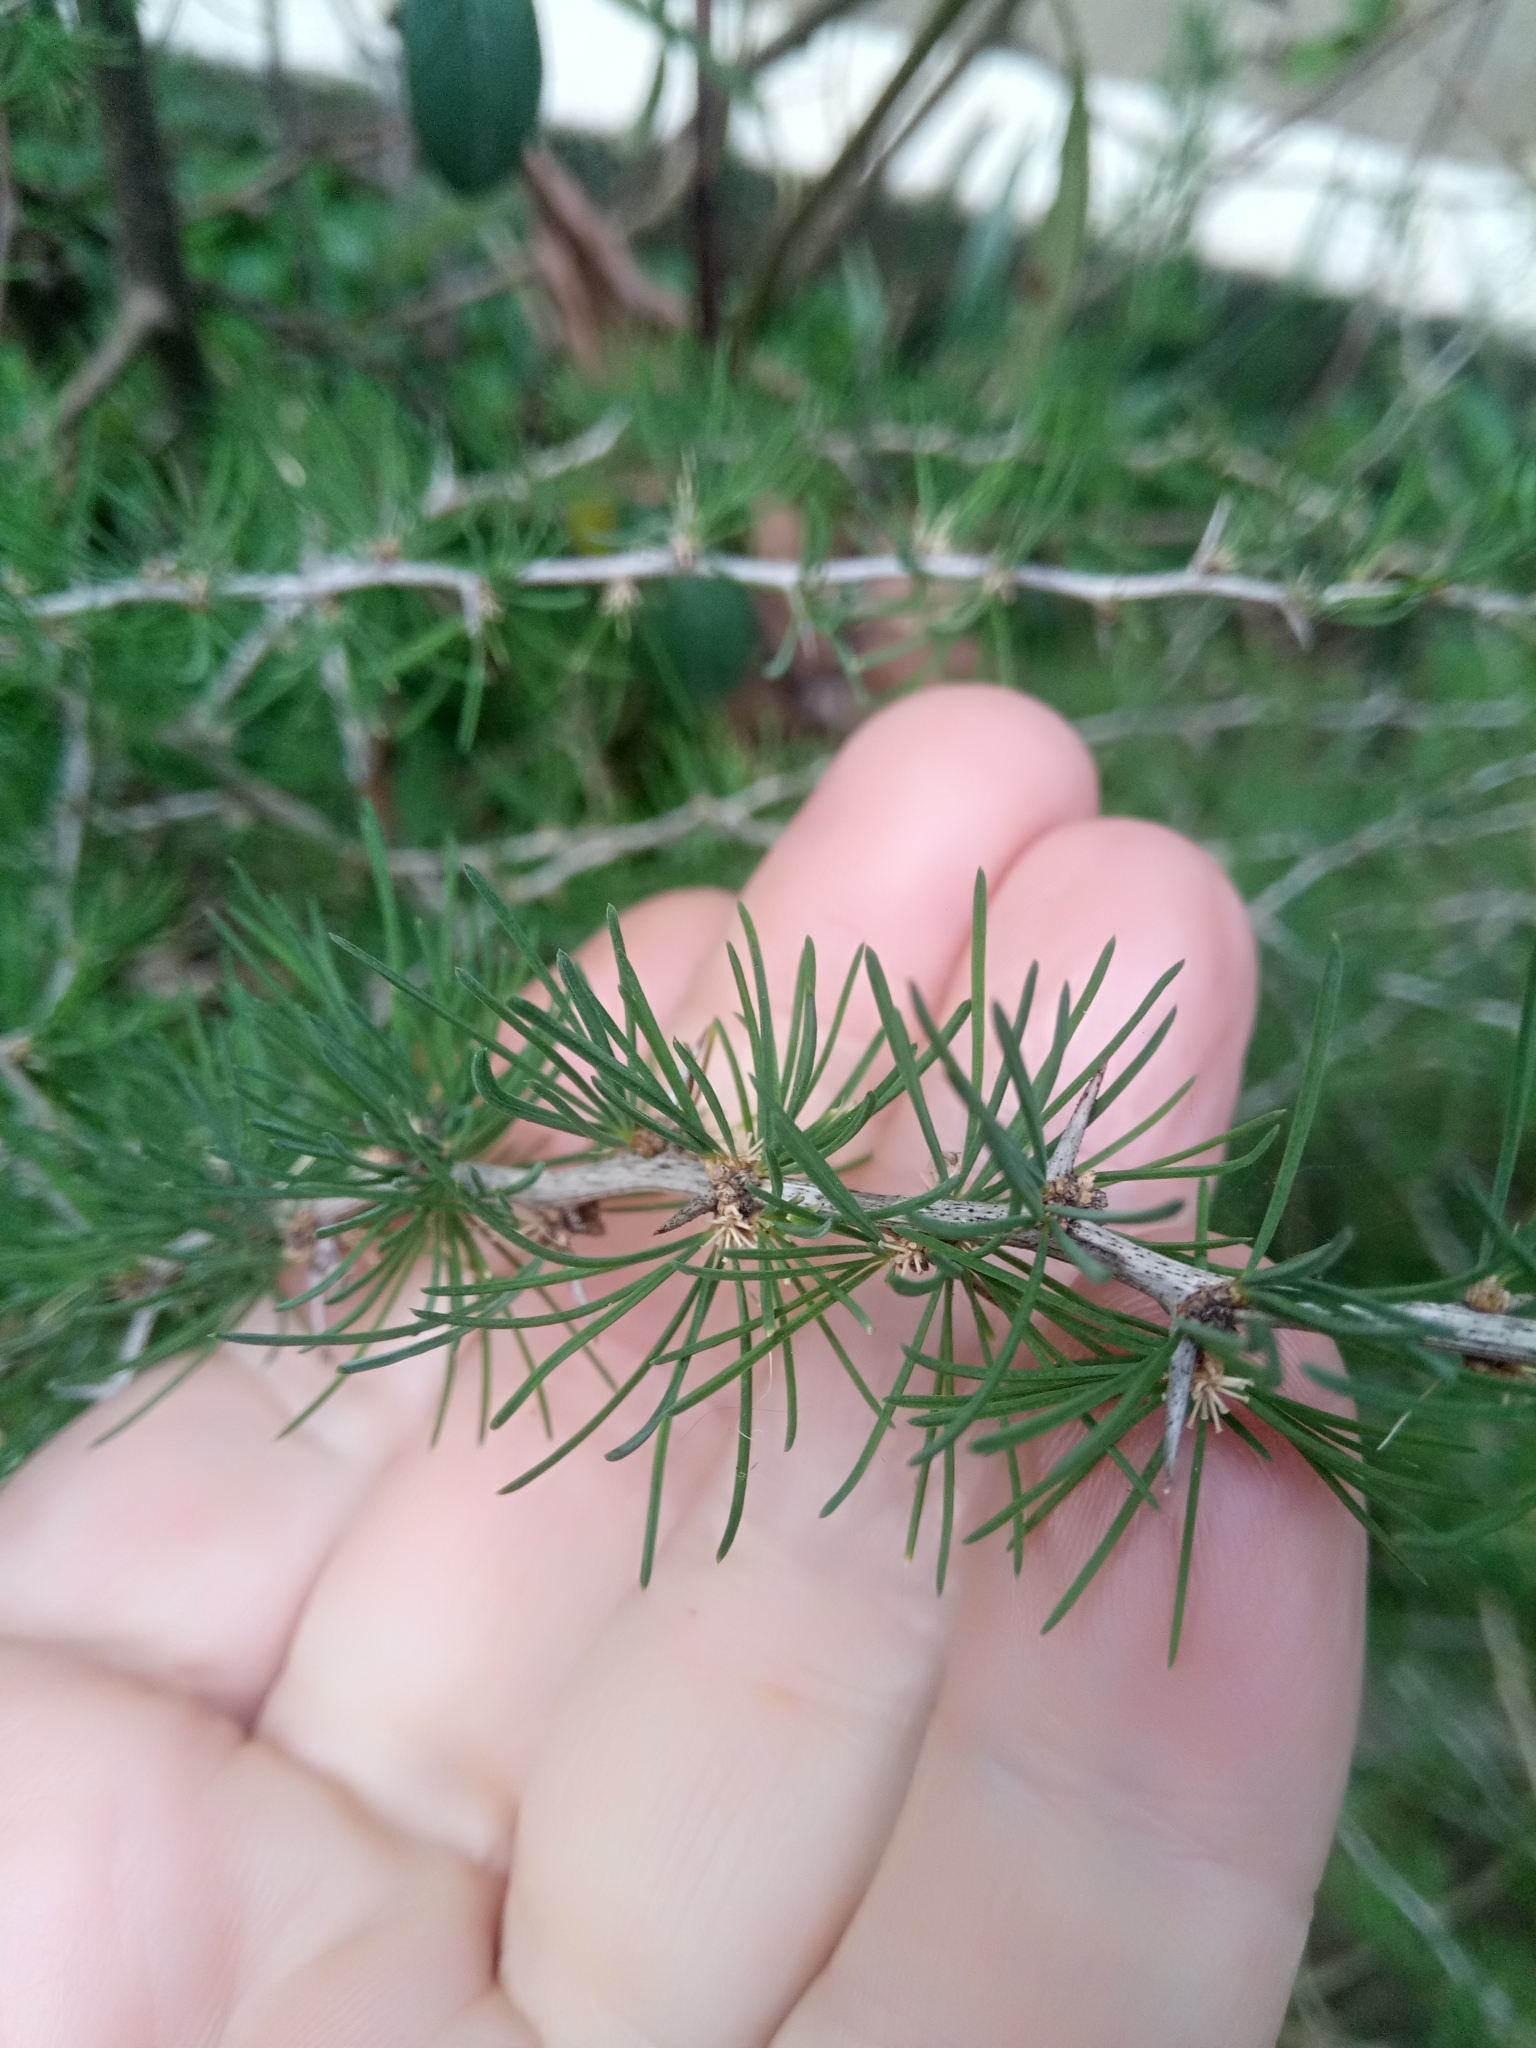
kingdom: Plantae
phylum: Tracheophyta
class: Liliopsida
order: Asparagales
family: Asparagaceae
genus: Asparagus
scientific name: Asparagus albus
